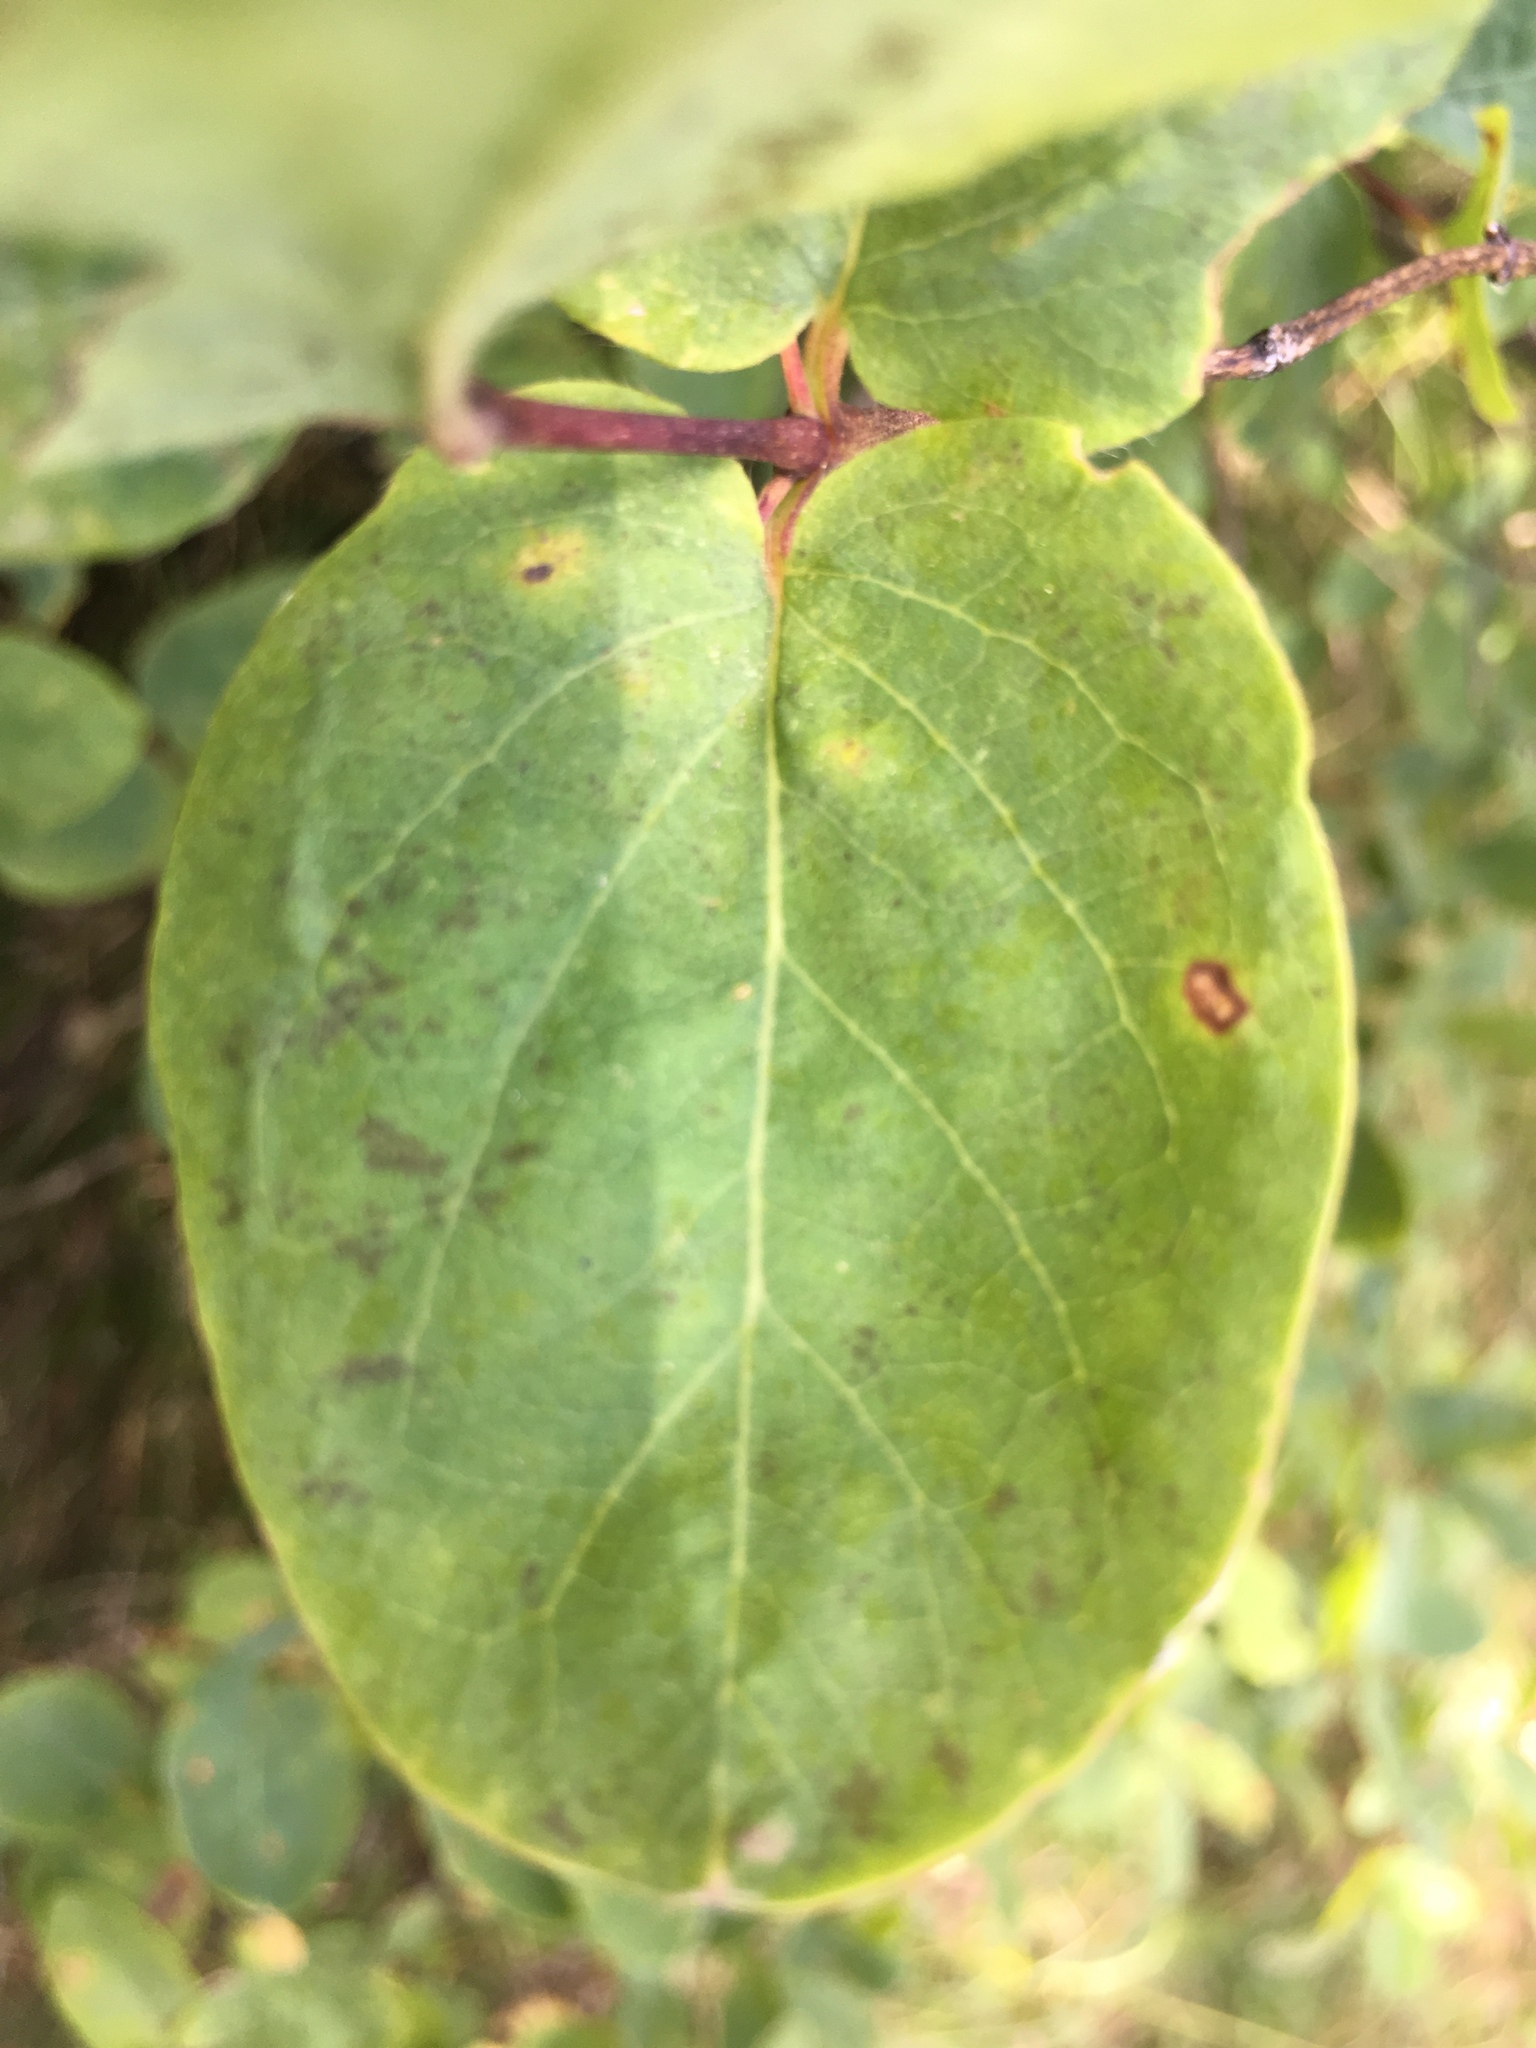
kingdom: Plantae
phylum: Tracheophyta
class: Magnoliopsida
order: Dipsacales
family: Caprifoliaceae
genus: Lonicera
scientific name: Lonicera utahensis
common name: Utah honeysuckle
